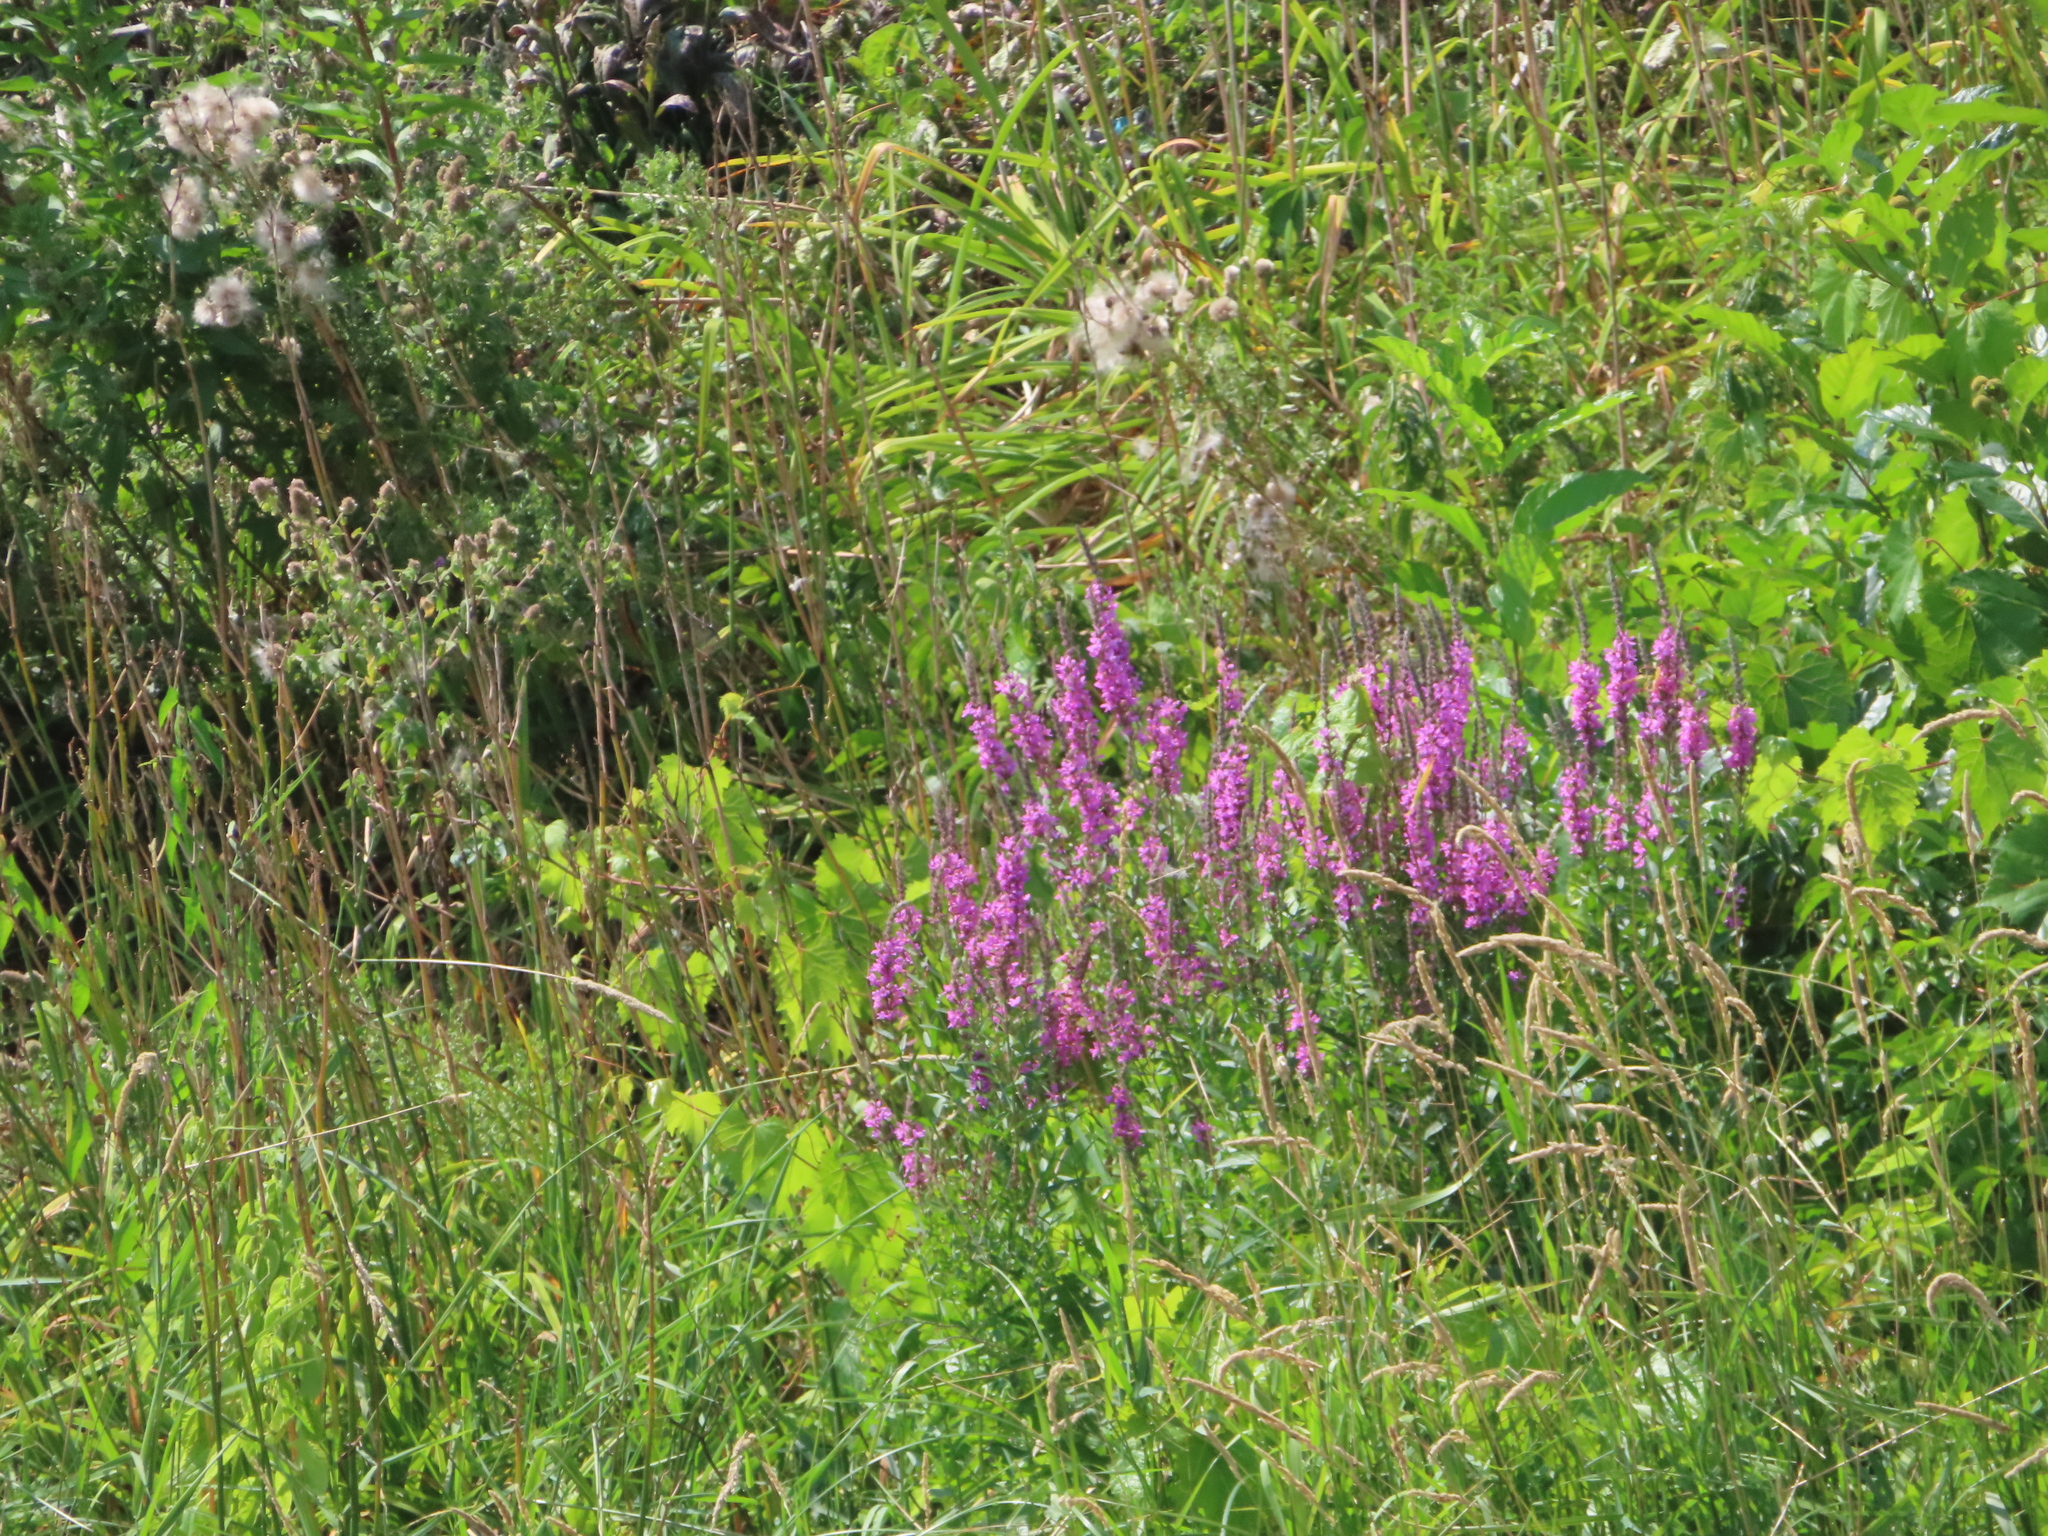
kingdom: Plantae
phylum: Tracheophyta
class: Magnoliopsida
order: Myrtales
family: Lythraceae
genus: Lythrum
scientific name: Lythrum salicaria
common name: Purple loosestrife
